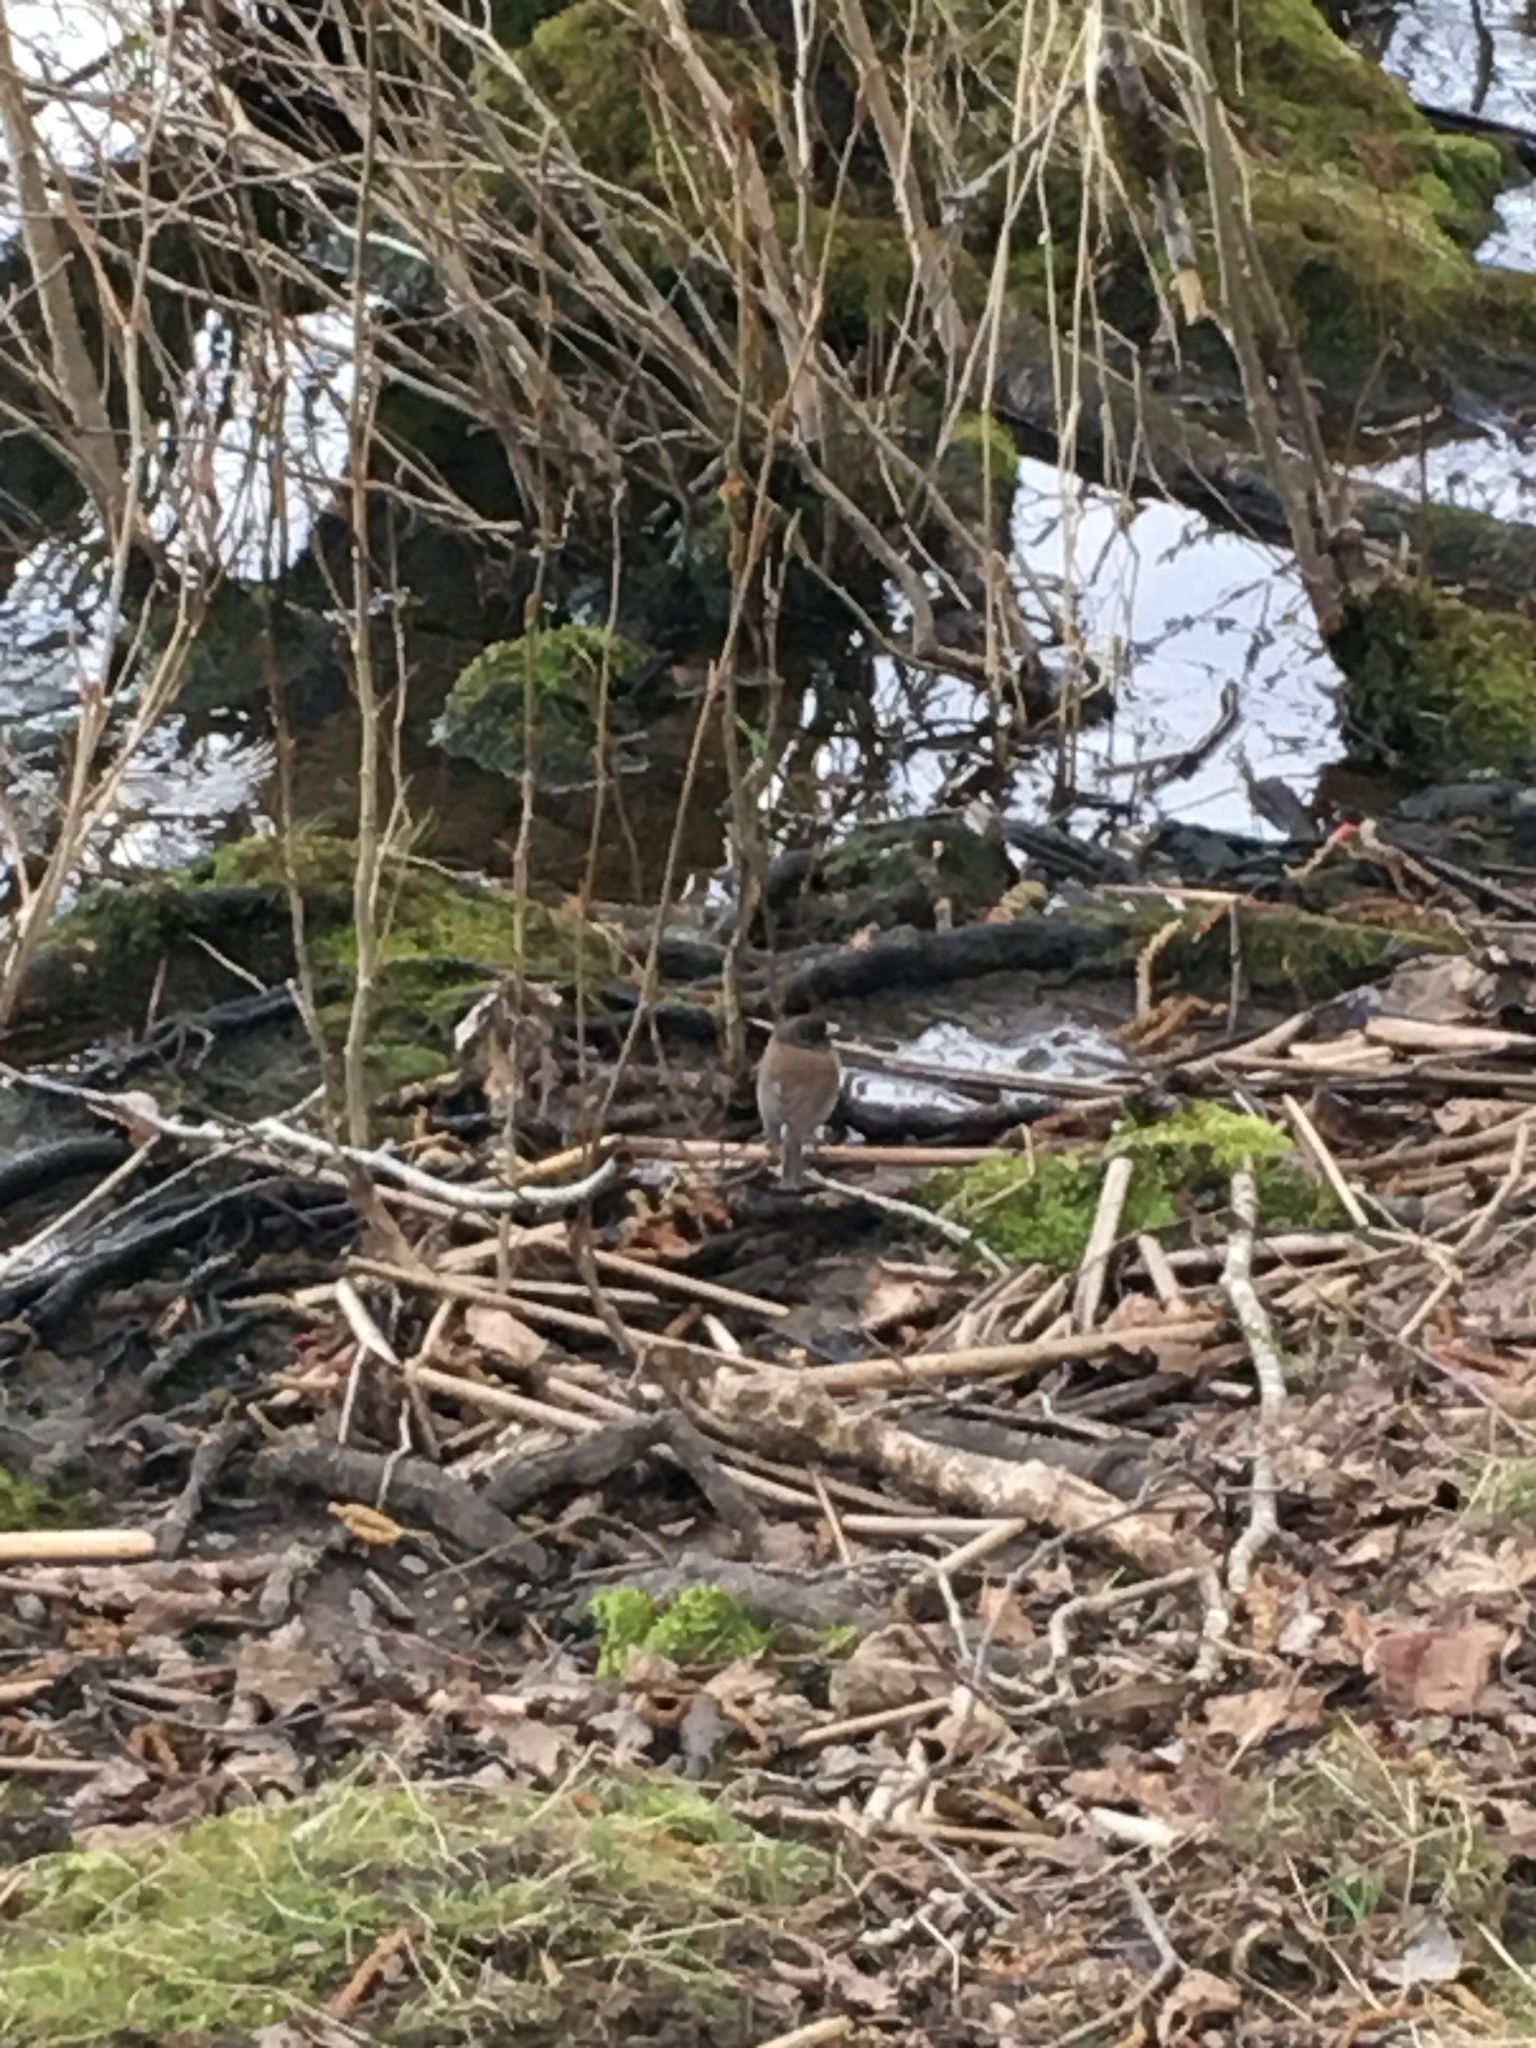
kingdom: Animalia
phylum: Chordata
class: Aves
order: Passeriformes
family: Passerellidae
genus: Junco
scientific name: Junco hyemalis
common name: Dark-eyed junco
